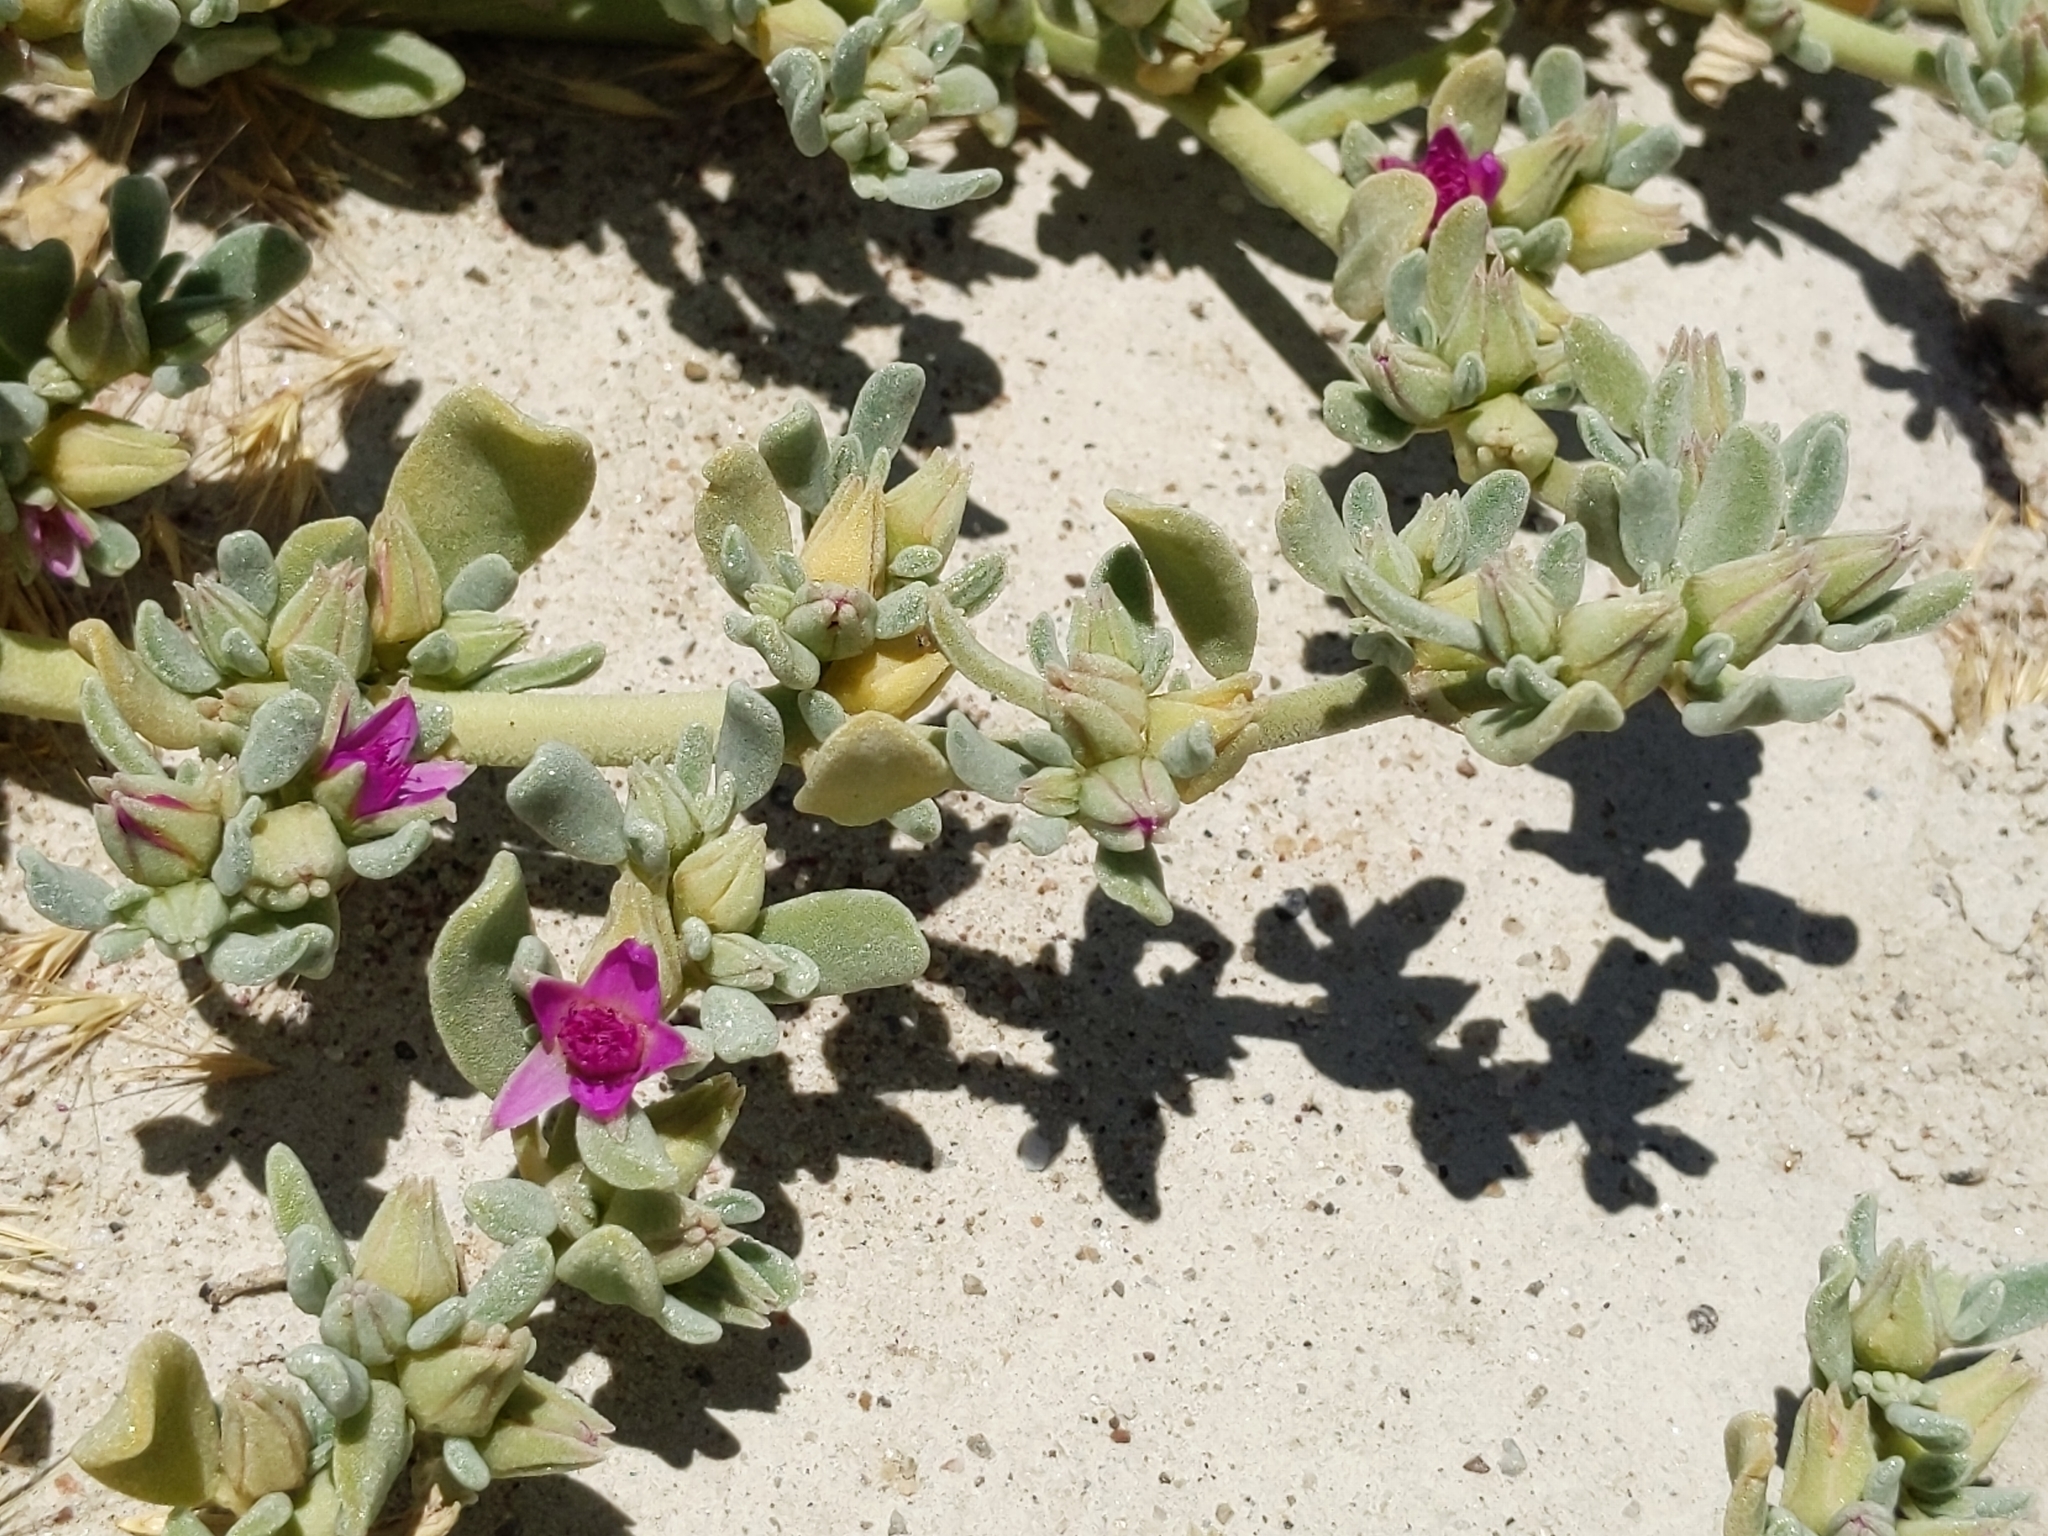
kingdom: Plantae
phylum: Tracheophyta
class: Magnoliopsida
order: Caryophyllales
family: Aizoaceae
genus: Sesuvium
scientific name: Sesuvium revolutifolium
